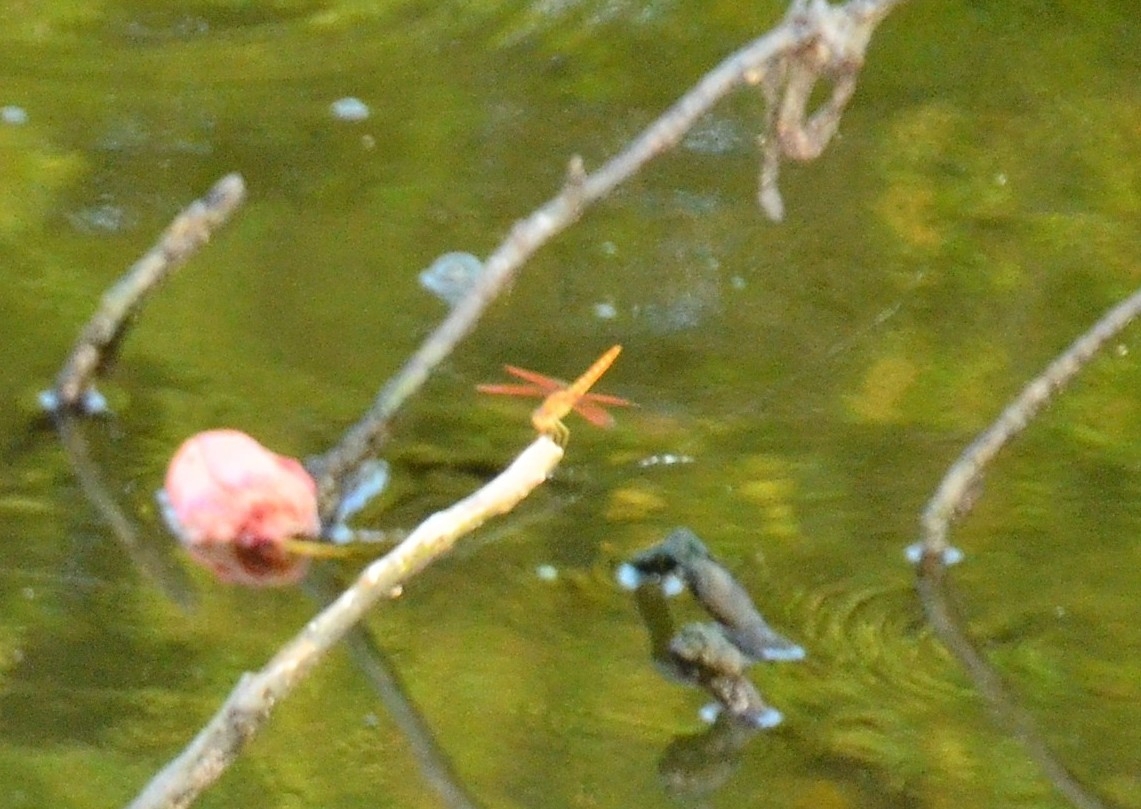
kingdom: Animalia
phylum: Arthropoda
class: Insecta
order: Odonata
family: Libellulidae
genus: Brachythemis
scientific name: Brachythemis contaminata
